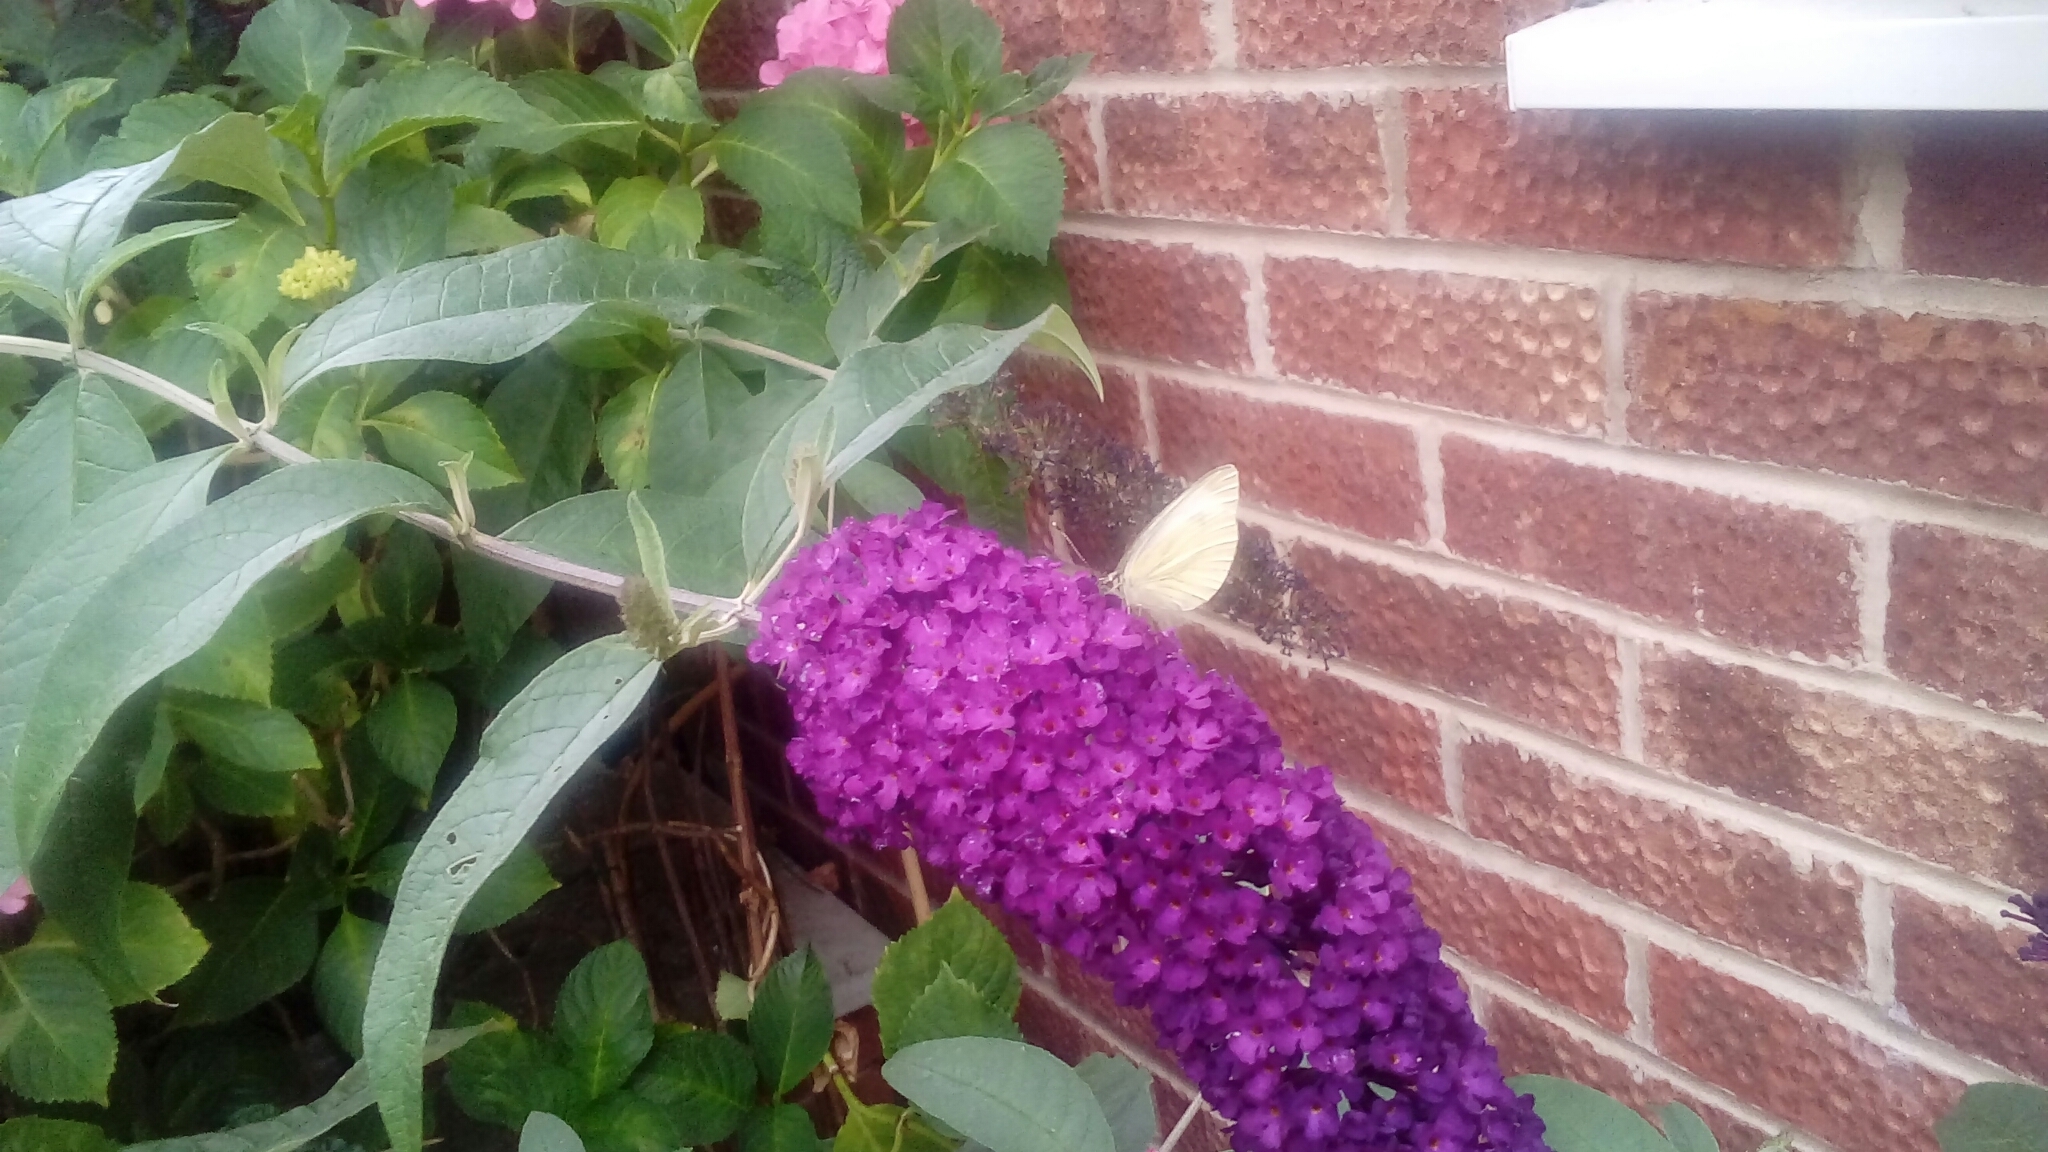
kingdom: Animalia
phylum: Arthropoda
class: Insecta
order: Lepidoptera
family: Pieridae
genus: Pieris
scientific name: Pieris
